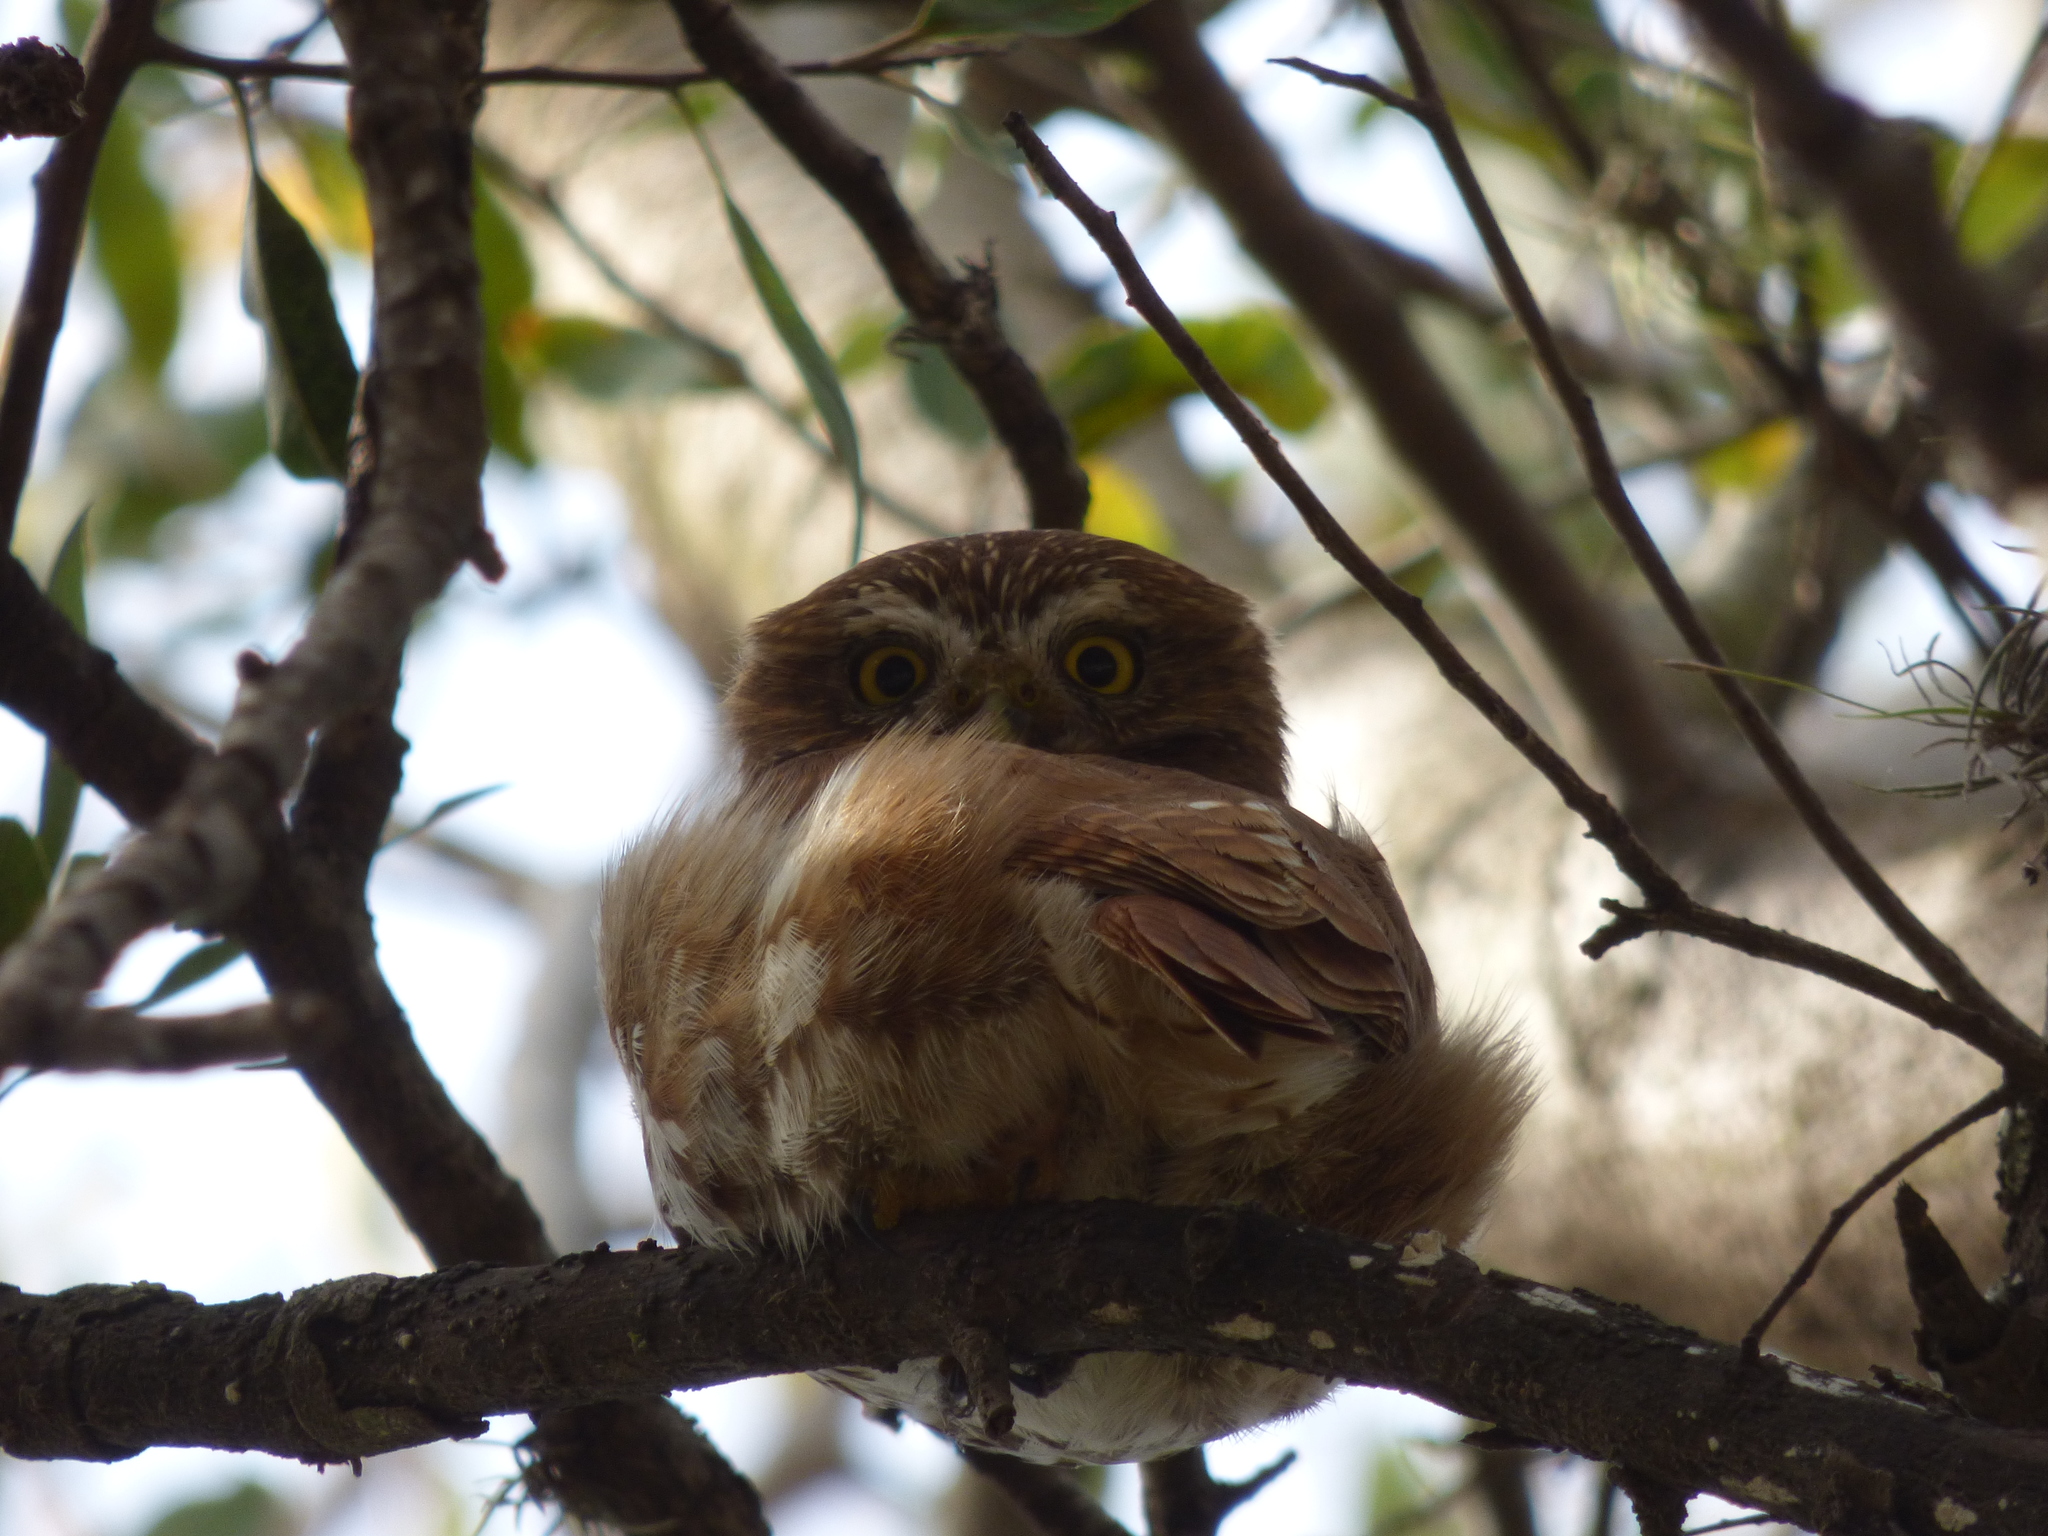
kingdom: Animalia
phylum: Chordata
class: Aves
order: Strigiformes
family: Strigidae
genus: Glaucidium
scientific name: Glaucidium brasilianum
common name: Ferruginous pygmy-owl
